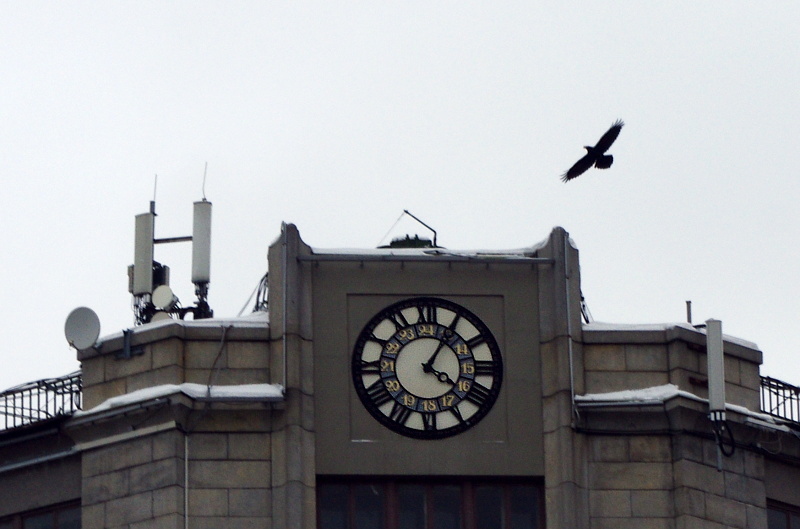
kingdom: Animalia
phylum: Chordata
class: Aves
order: Passeriformes
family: Corvidae
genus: Corvus
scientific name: Corvus corax
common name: Common raven
